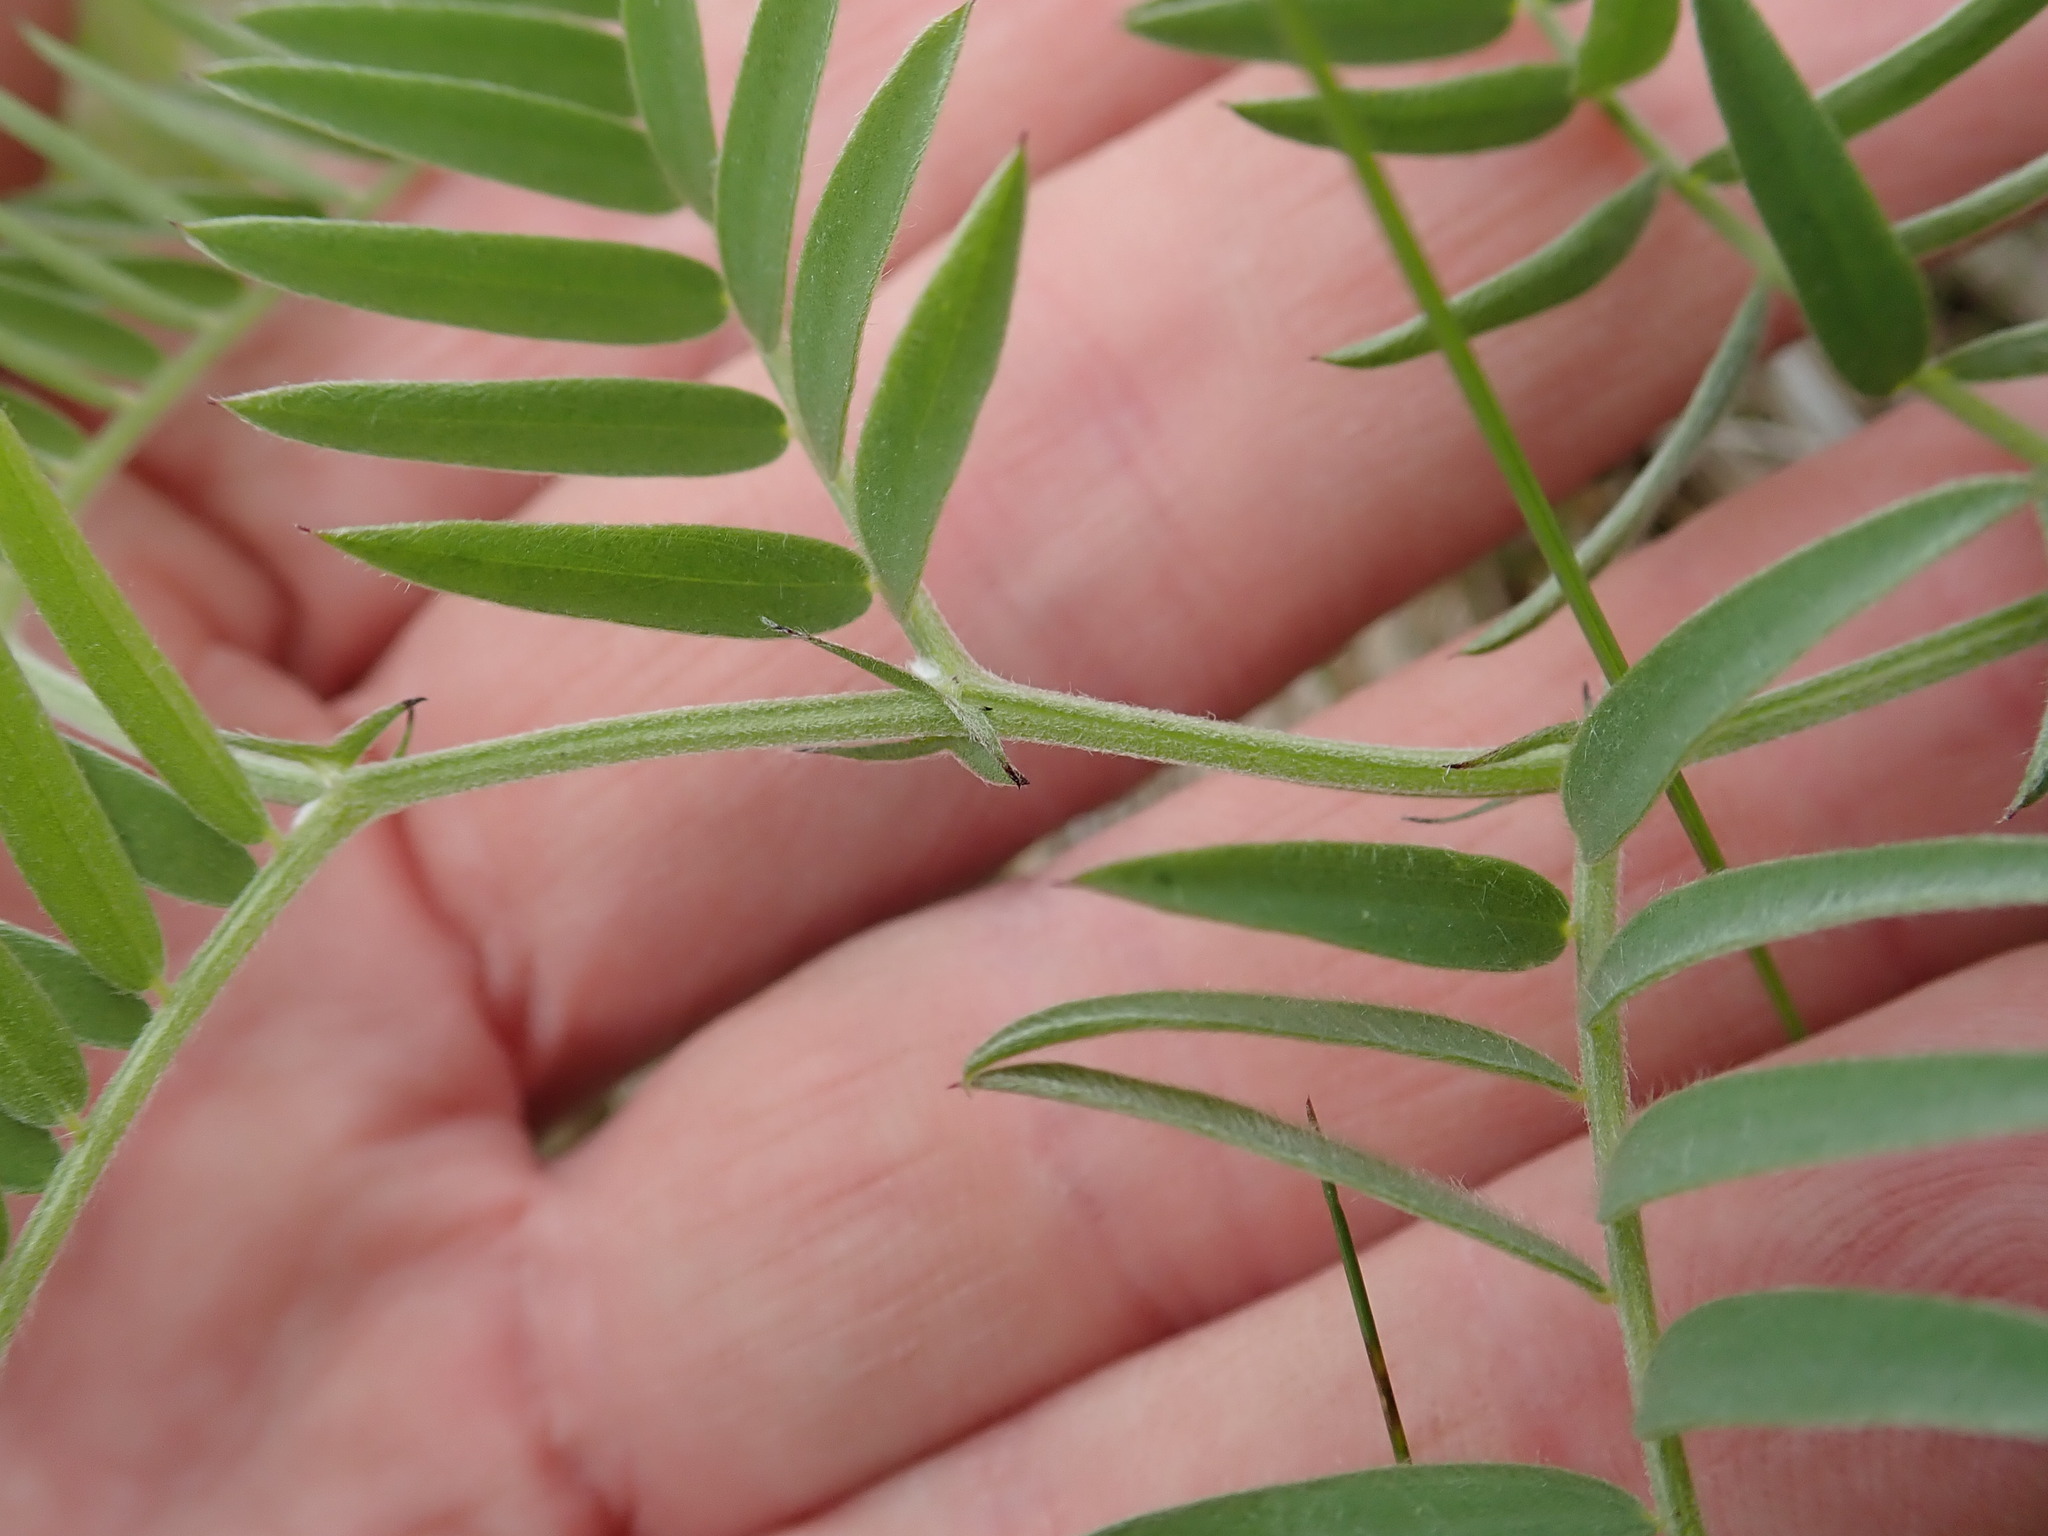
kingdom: Plantae
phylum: Tracheophyta
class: Magnoliopsida
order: Fabales
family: Fabaceae
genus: Vicia
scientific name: Vicia cracca
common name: Bird vetch
